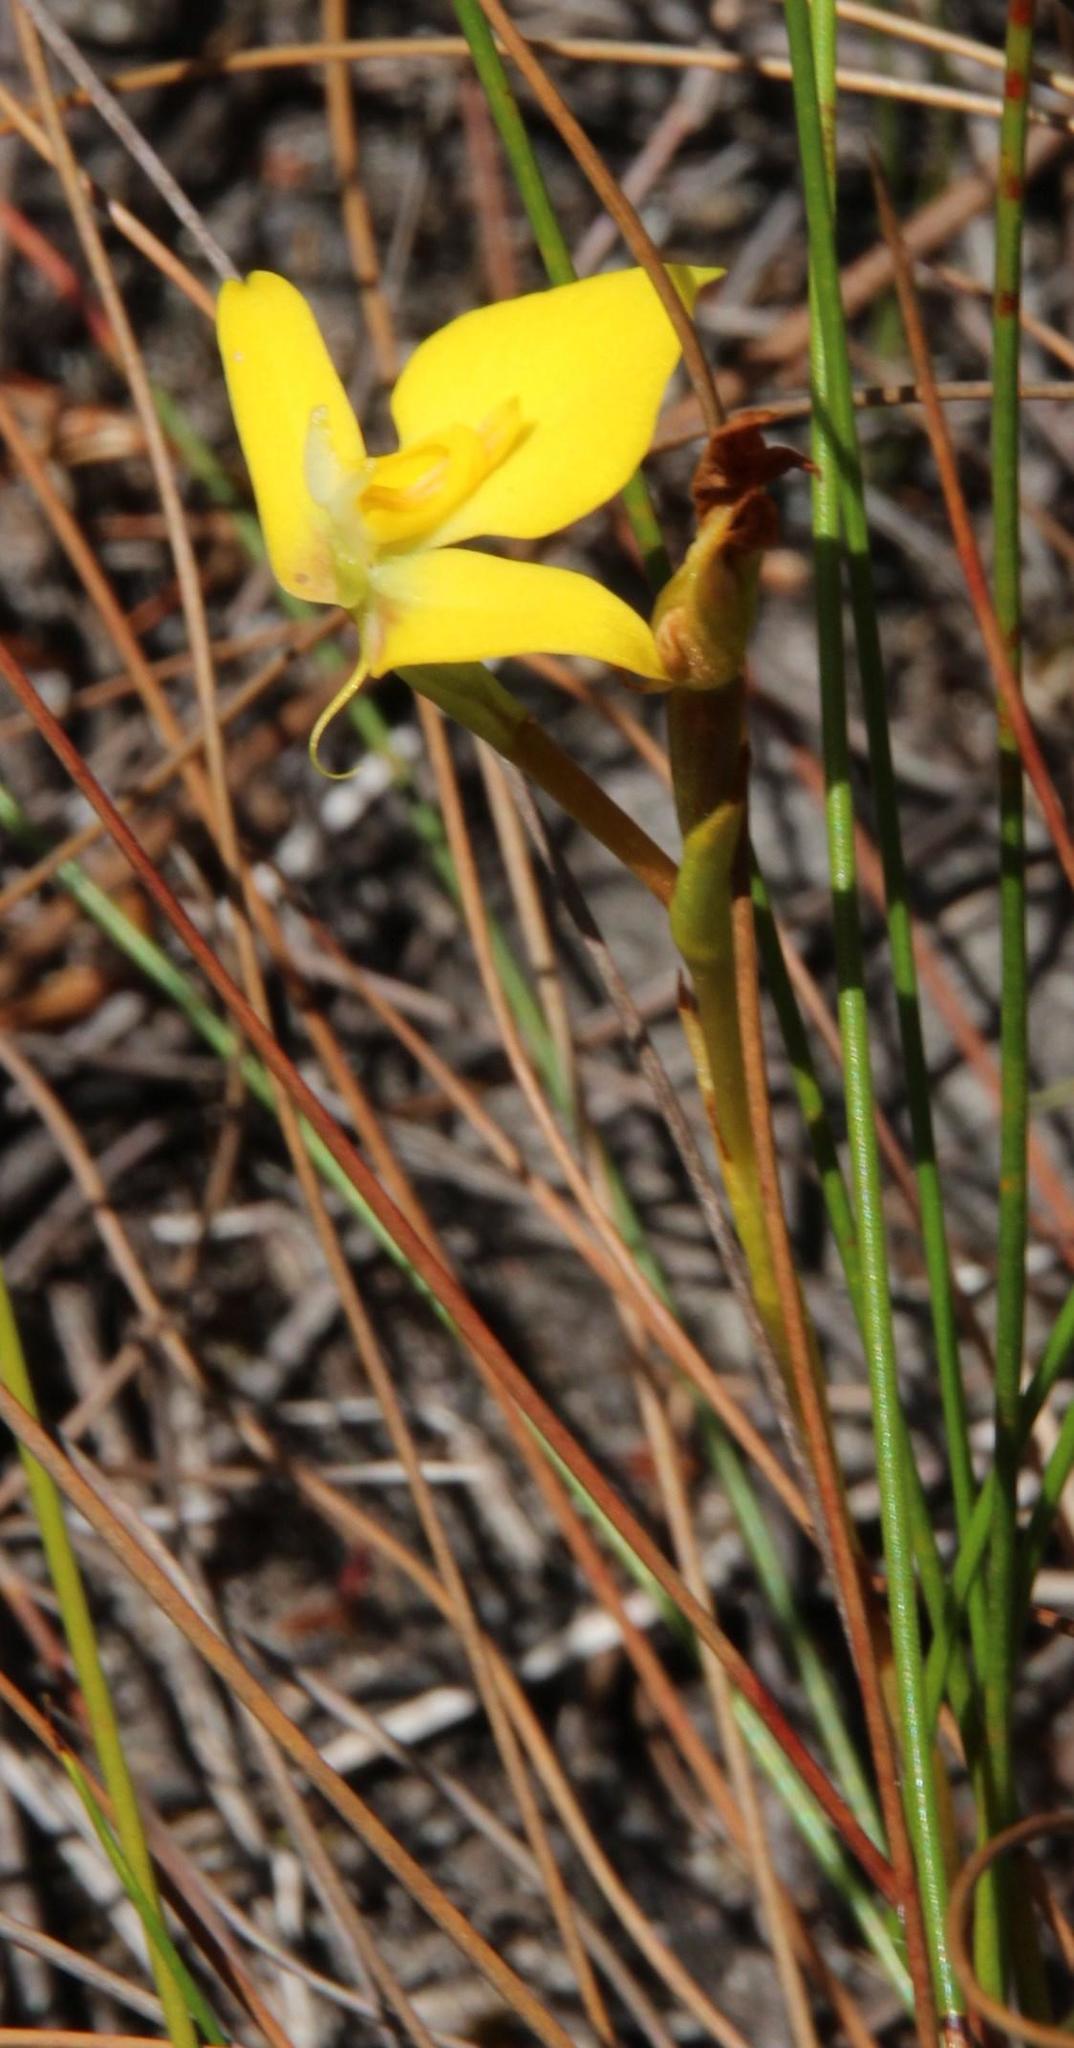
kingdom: Plantae
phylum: Tracheophyta
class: Liliopsida
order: Asparagales
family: Orchidaceae
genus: Disa
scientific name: Disa tenuifolia
